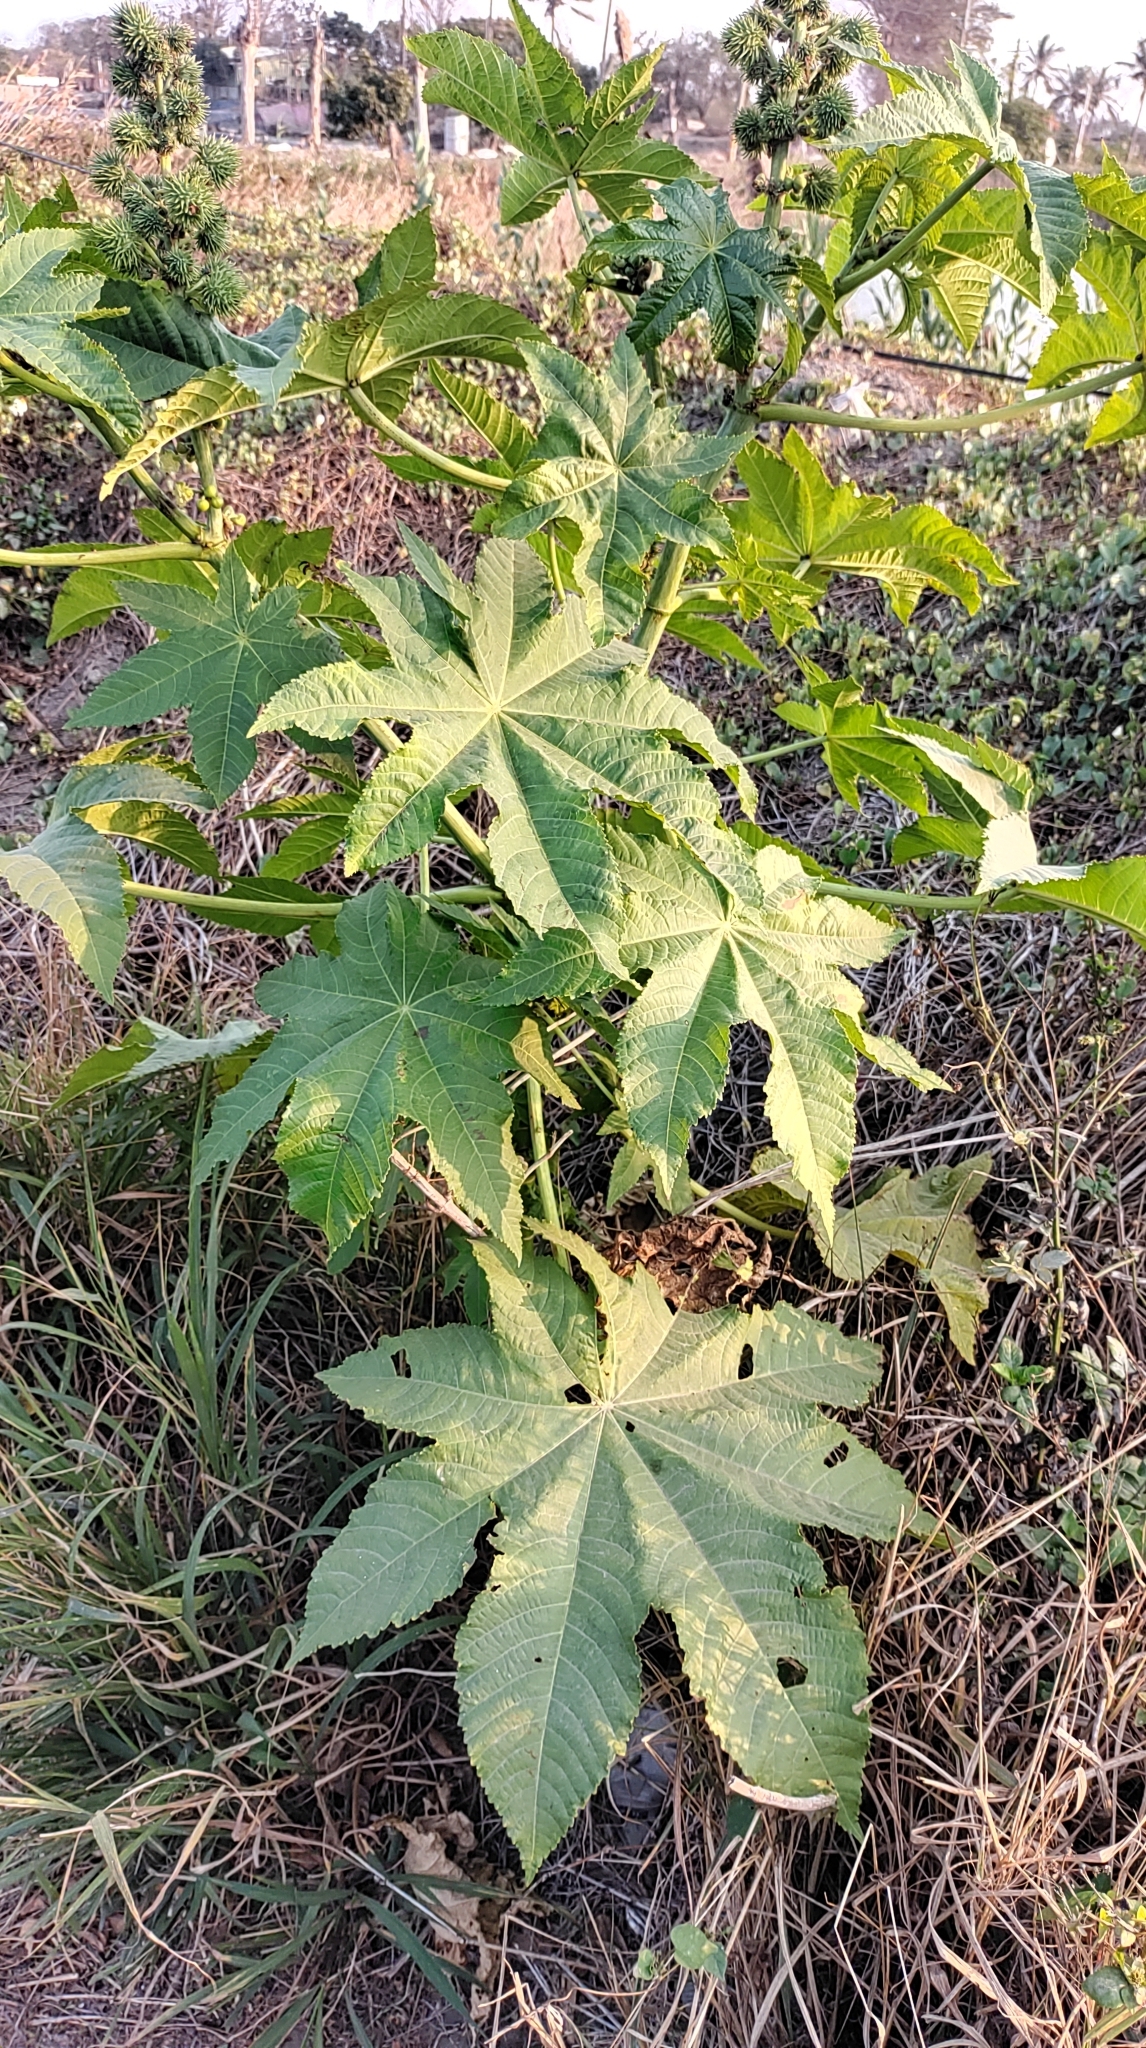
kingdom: Plantae
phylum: Tracheophyta
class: Magnoliopsida
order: Malpighiales
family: Euphorbiaceae
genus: Ricinus
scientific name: Ricinus communis
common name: Castor-oil-plant
